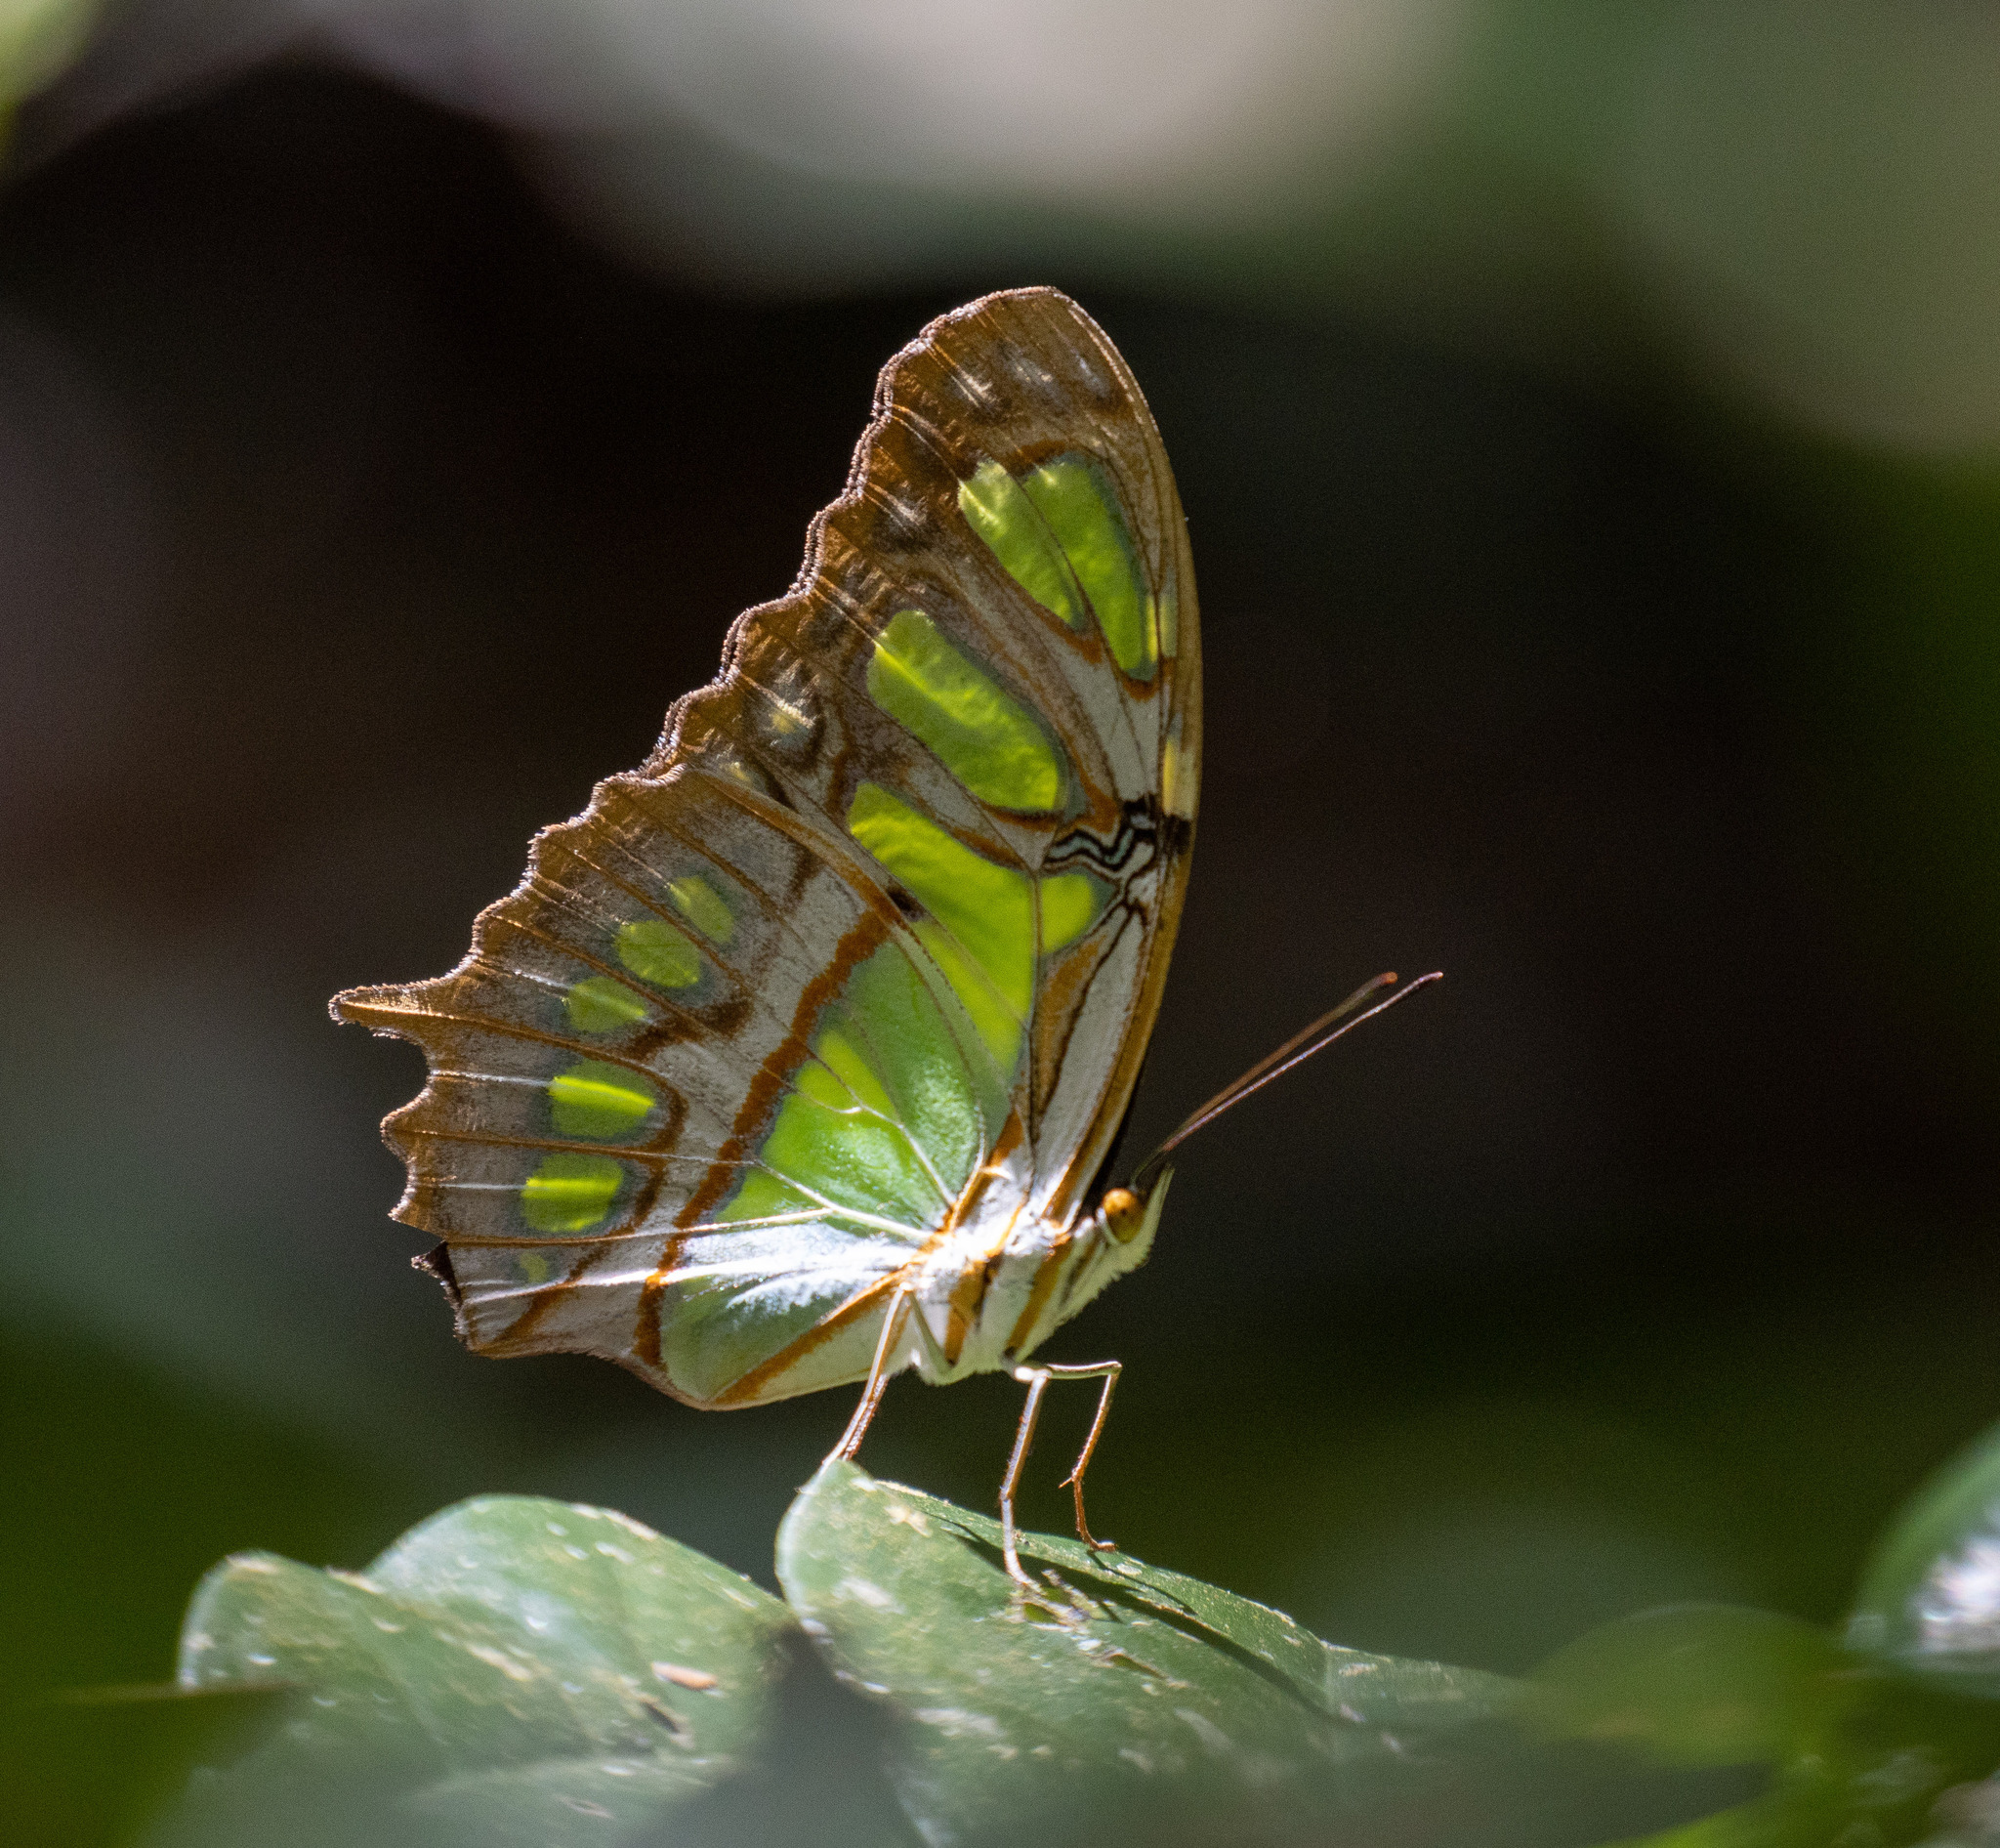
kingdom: Animalia
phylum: Arthropoda
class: Insecta
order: Lepidoptera
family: Nymphalidae
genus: Siproeta
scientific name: Siproeta stelenes
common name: Malachite
